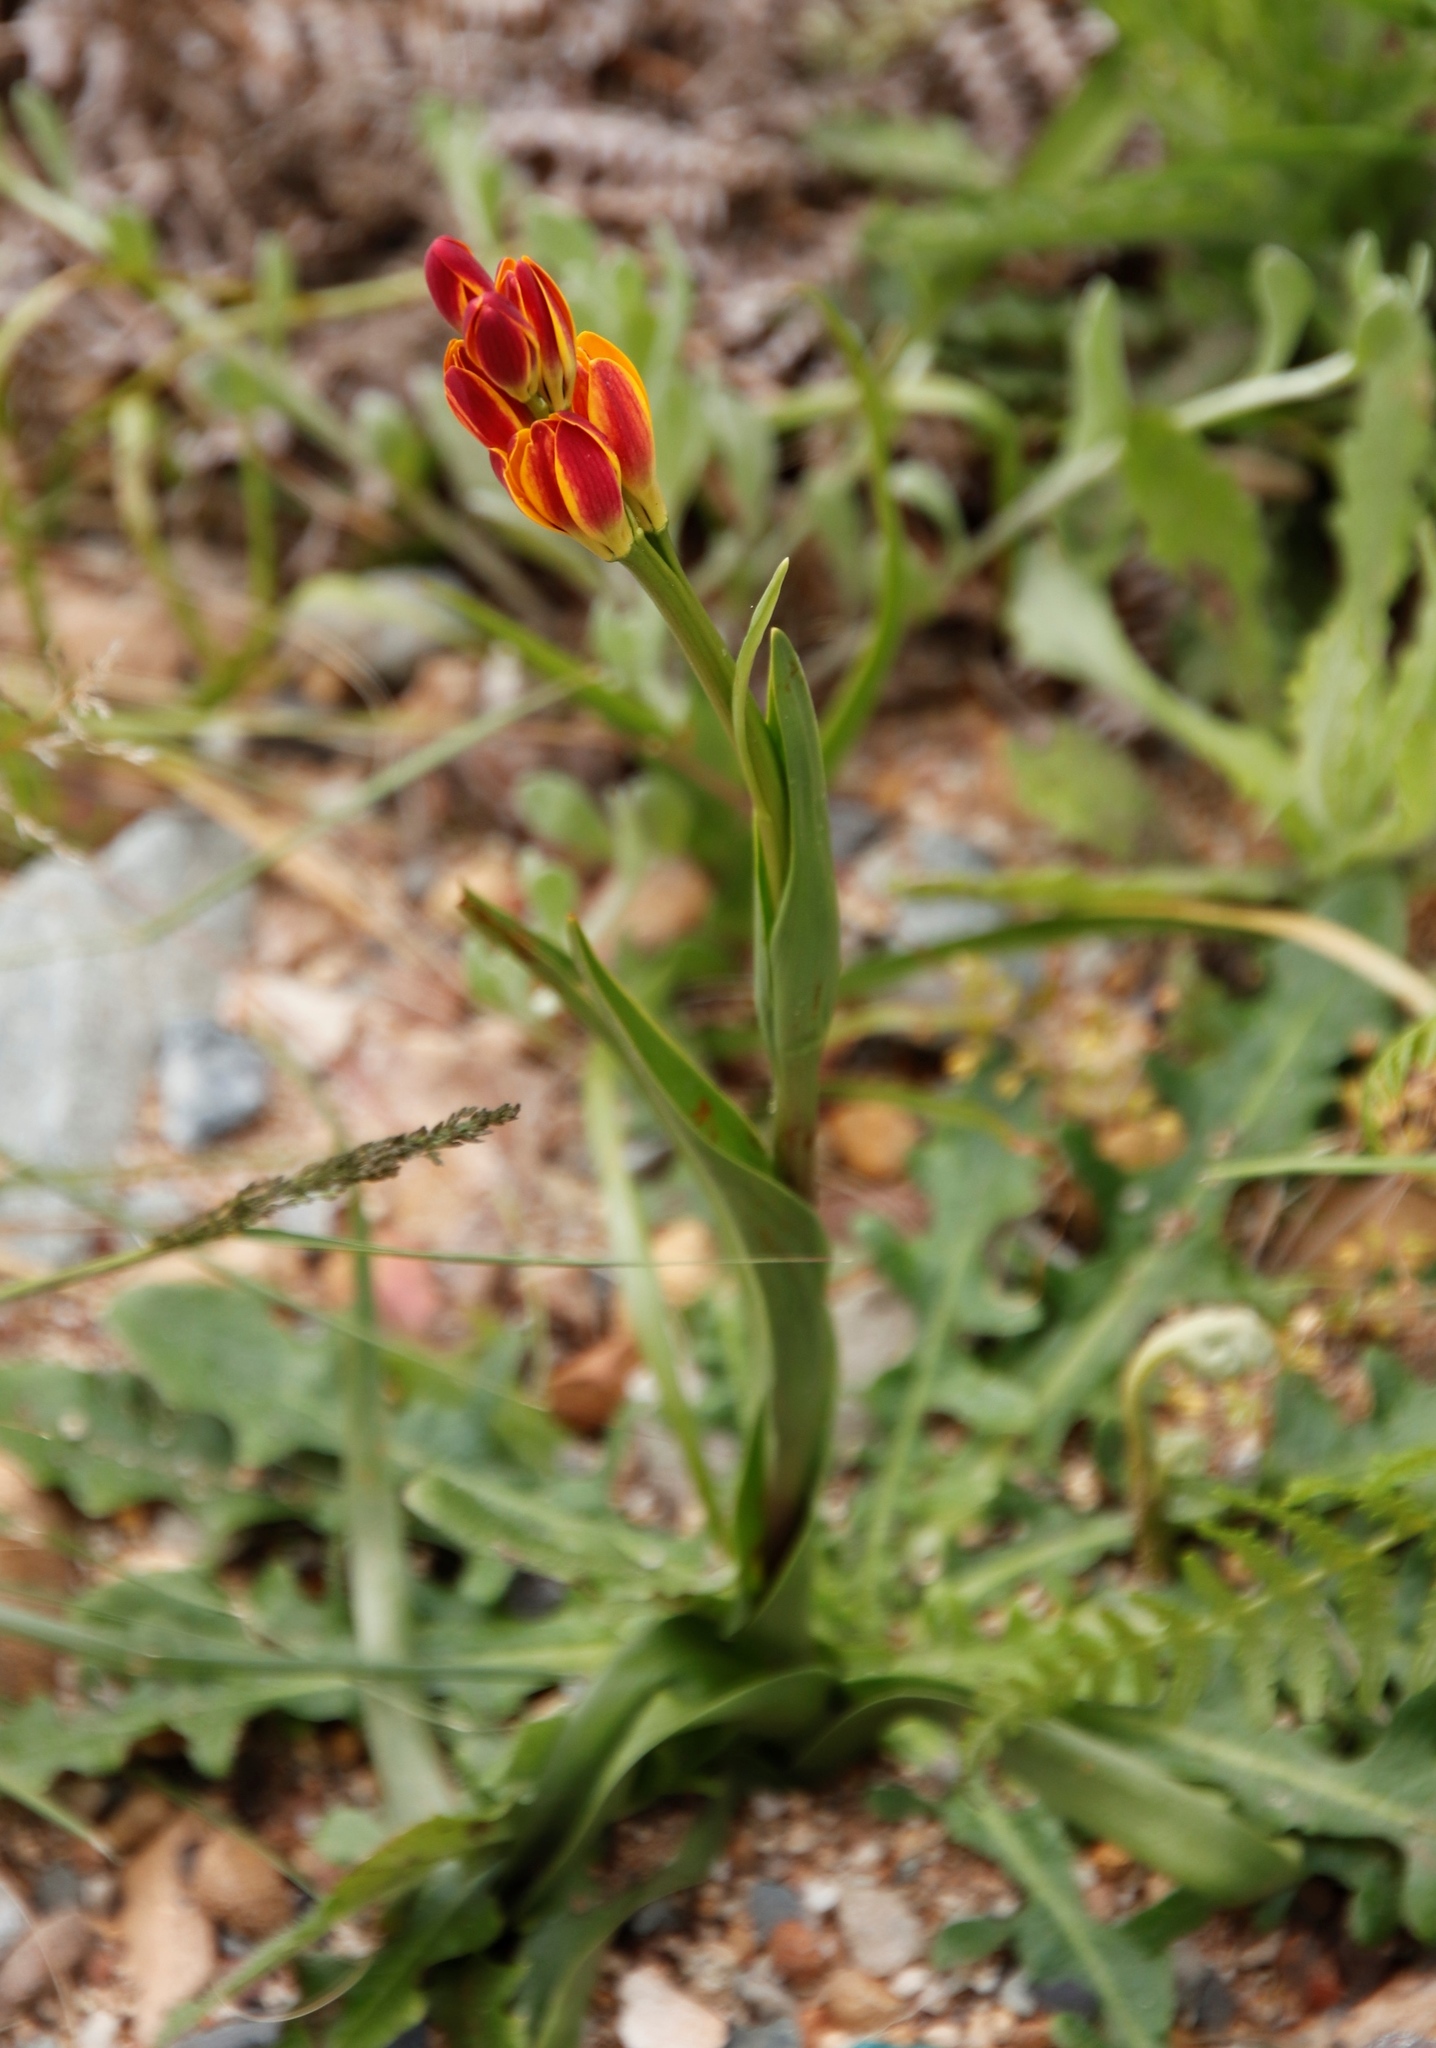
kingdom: Plantae
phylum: Tracheophyta
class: Liliopsida
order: Liliales
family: Colchicaceae
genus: Baeometra
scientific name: Baeometra uniflora
